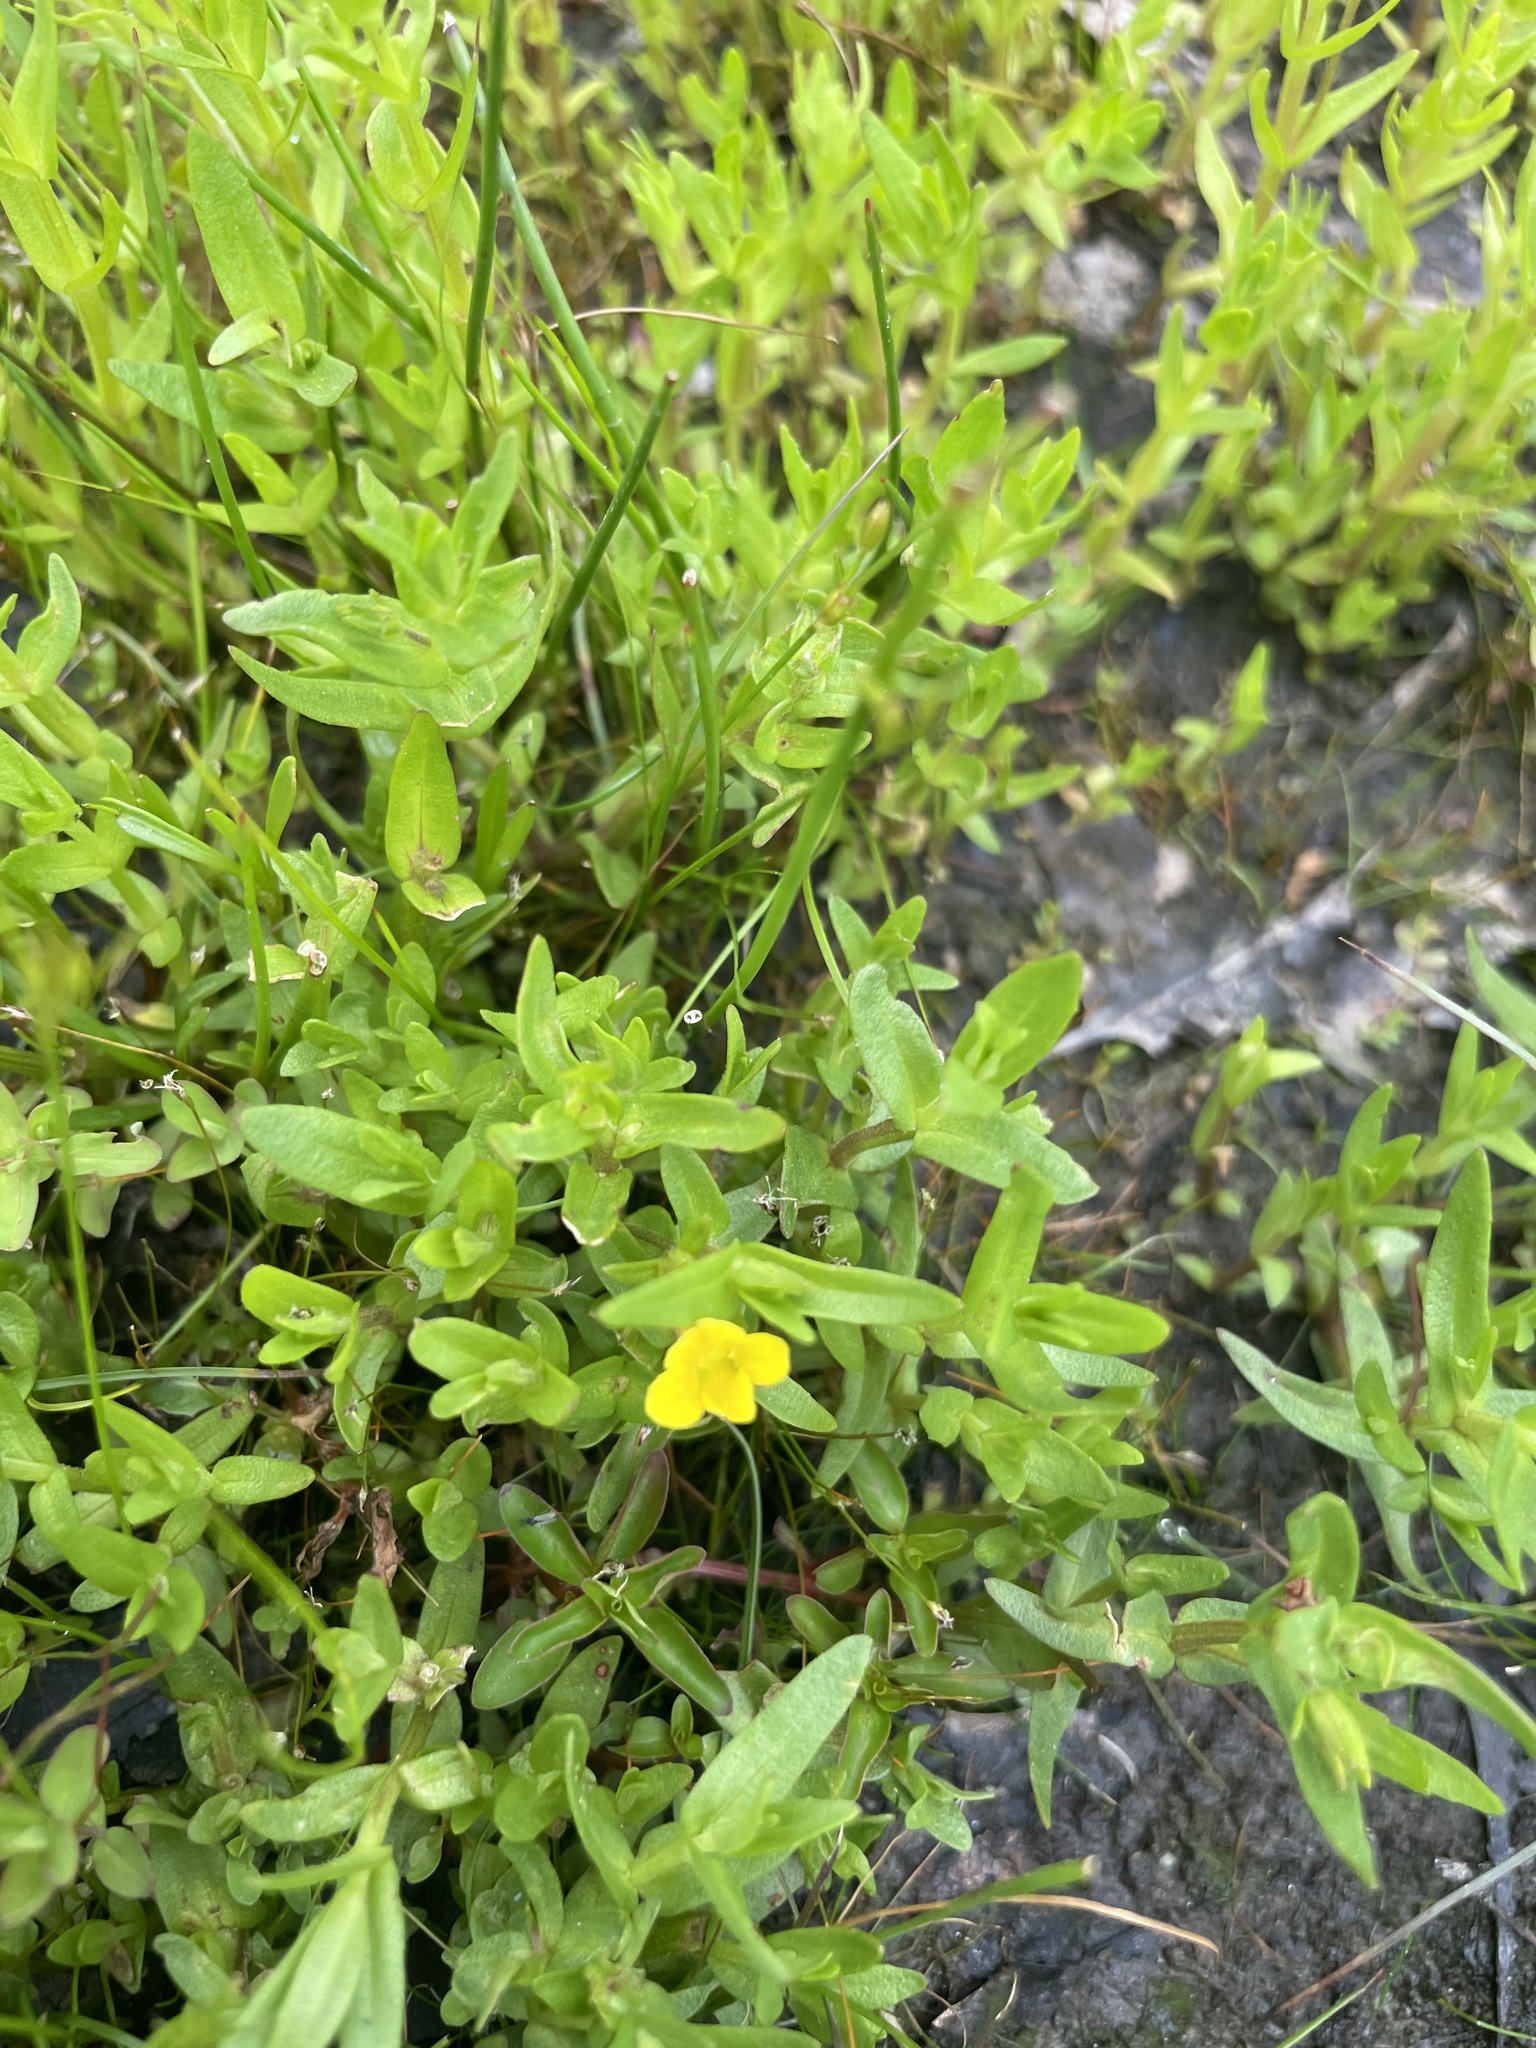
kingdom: Plantae
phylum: Tracheophyta
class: Magnoliopsida
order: Lamiales
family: Plantaginaceae
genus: Gratiola
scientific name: Gratiola lutea
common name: Golden hedge-hyssop
